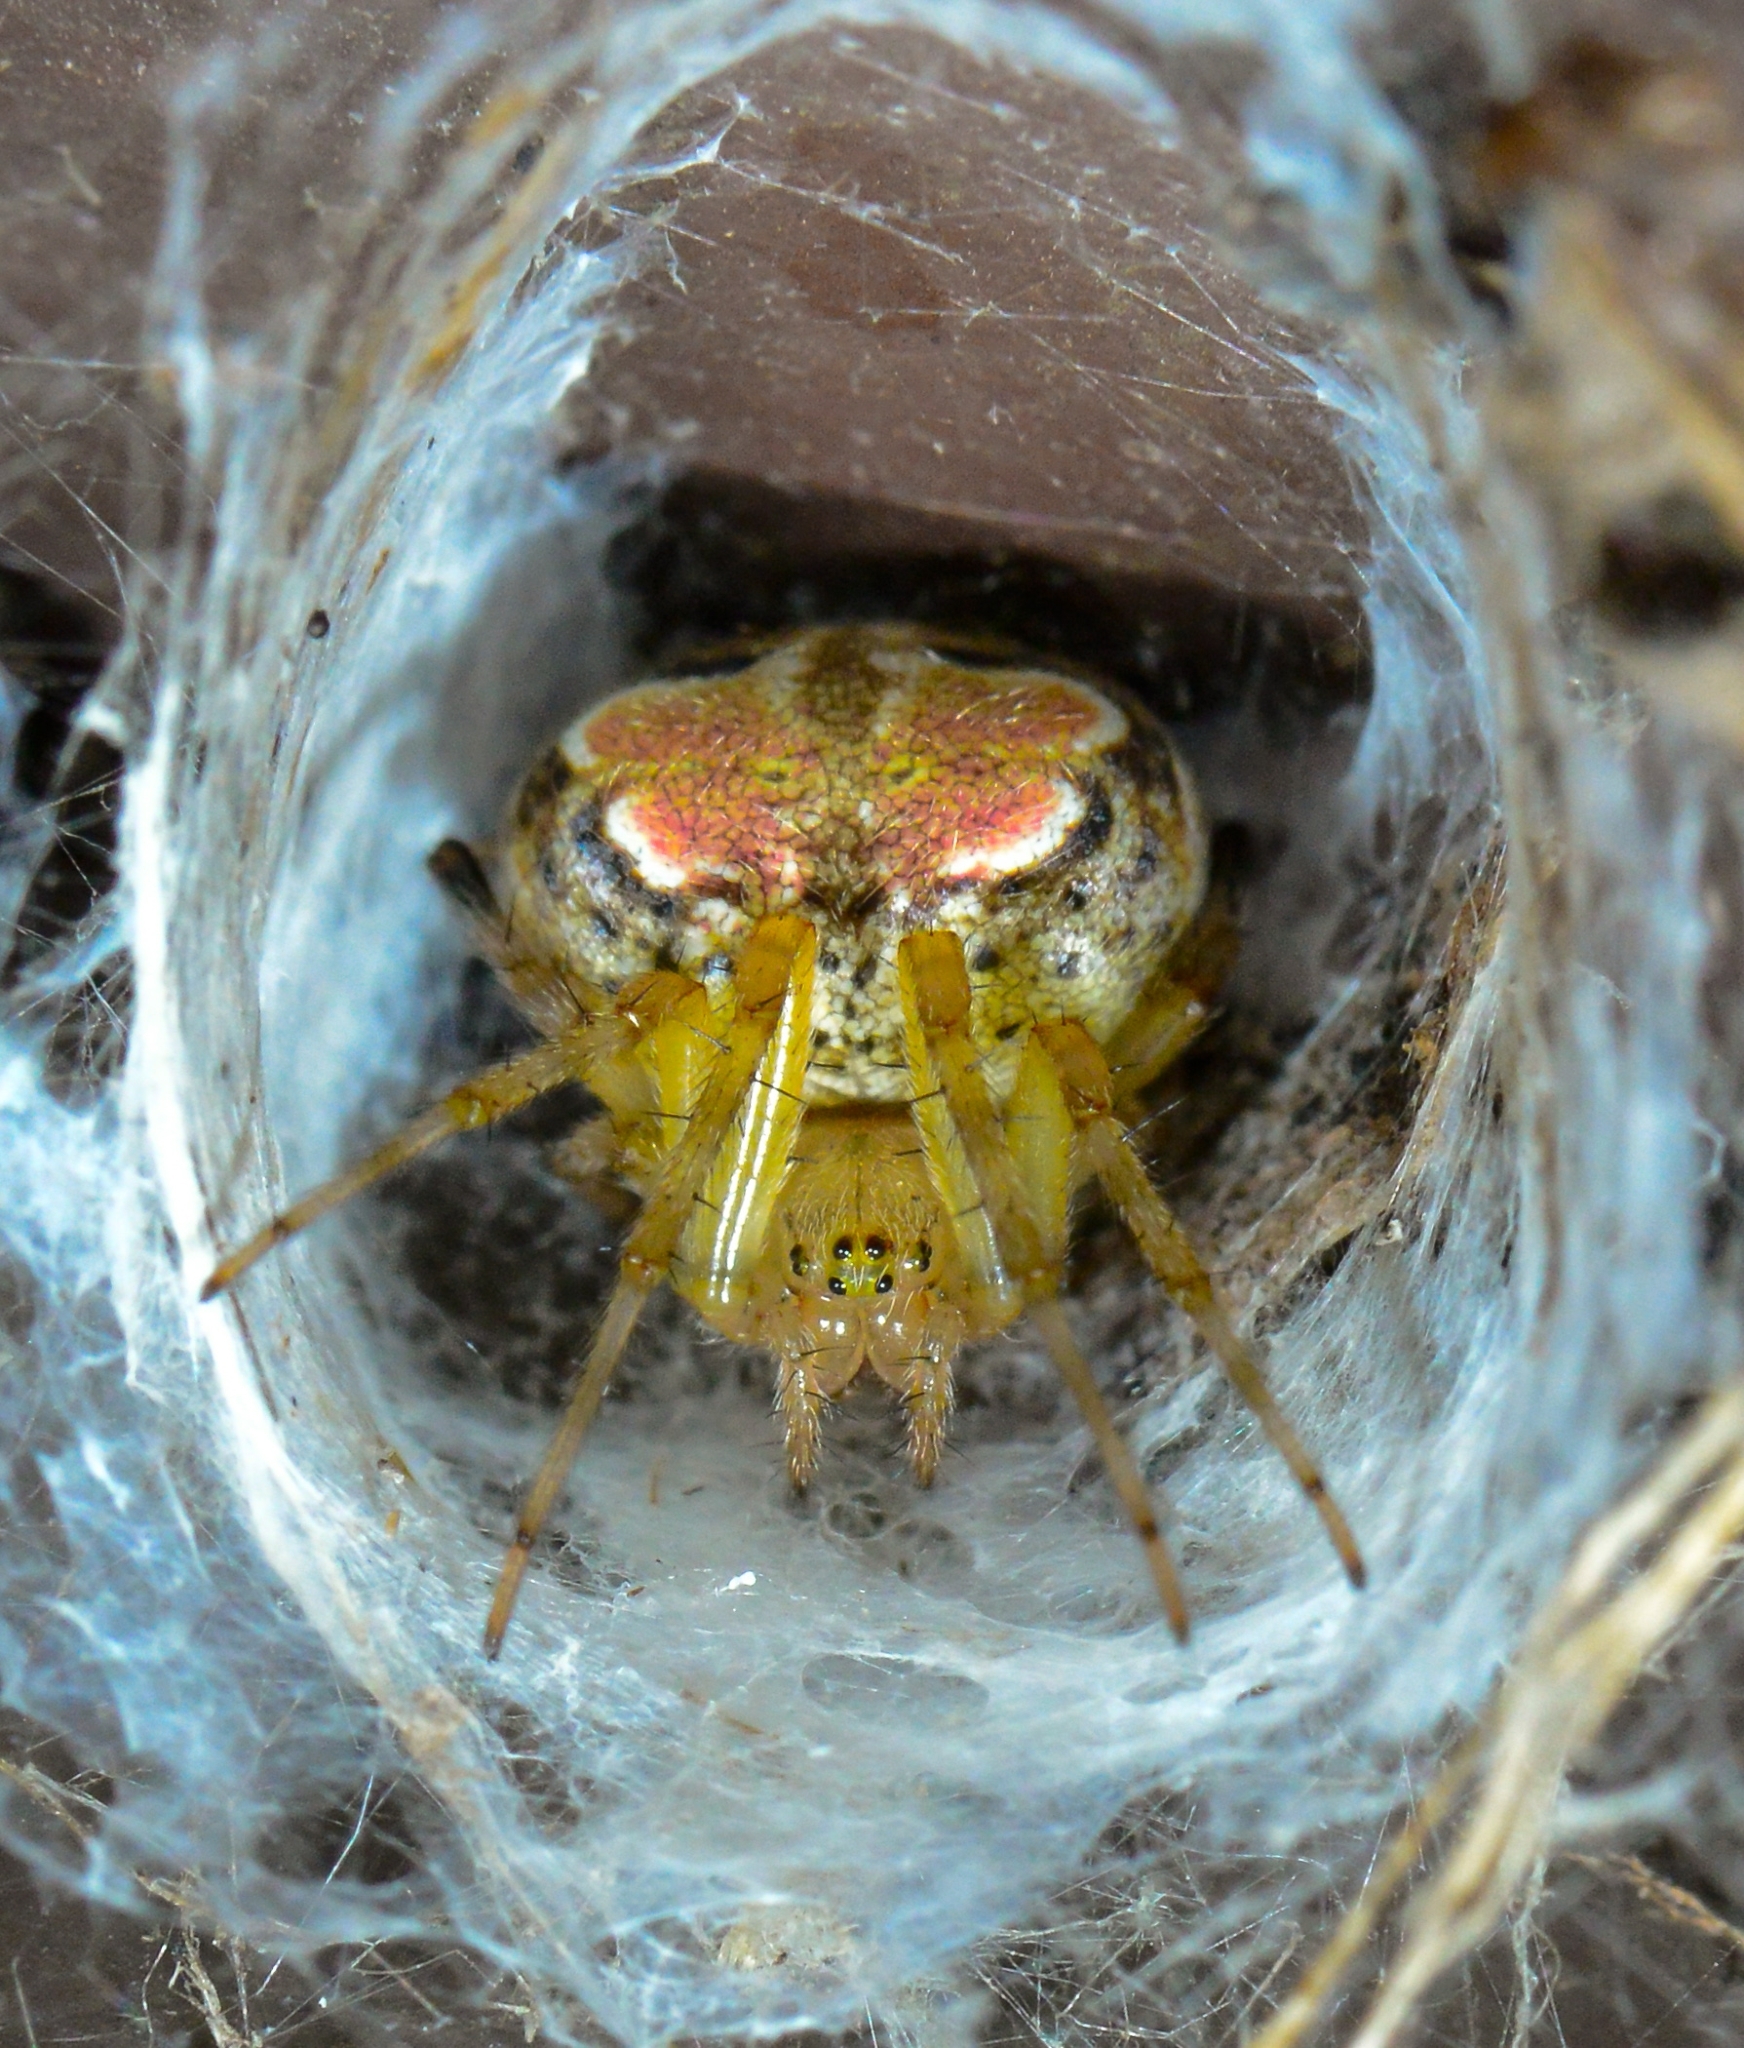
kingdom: Animalia
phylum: Arthropoda
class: Arachnida
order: Araneae
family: Araneidae
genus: Araneus
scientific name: Araneus pegnia
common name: Orb weavers
